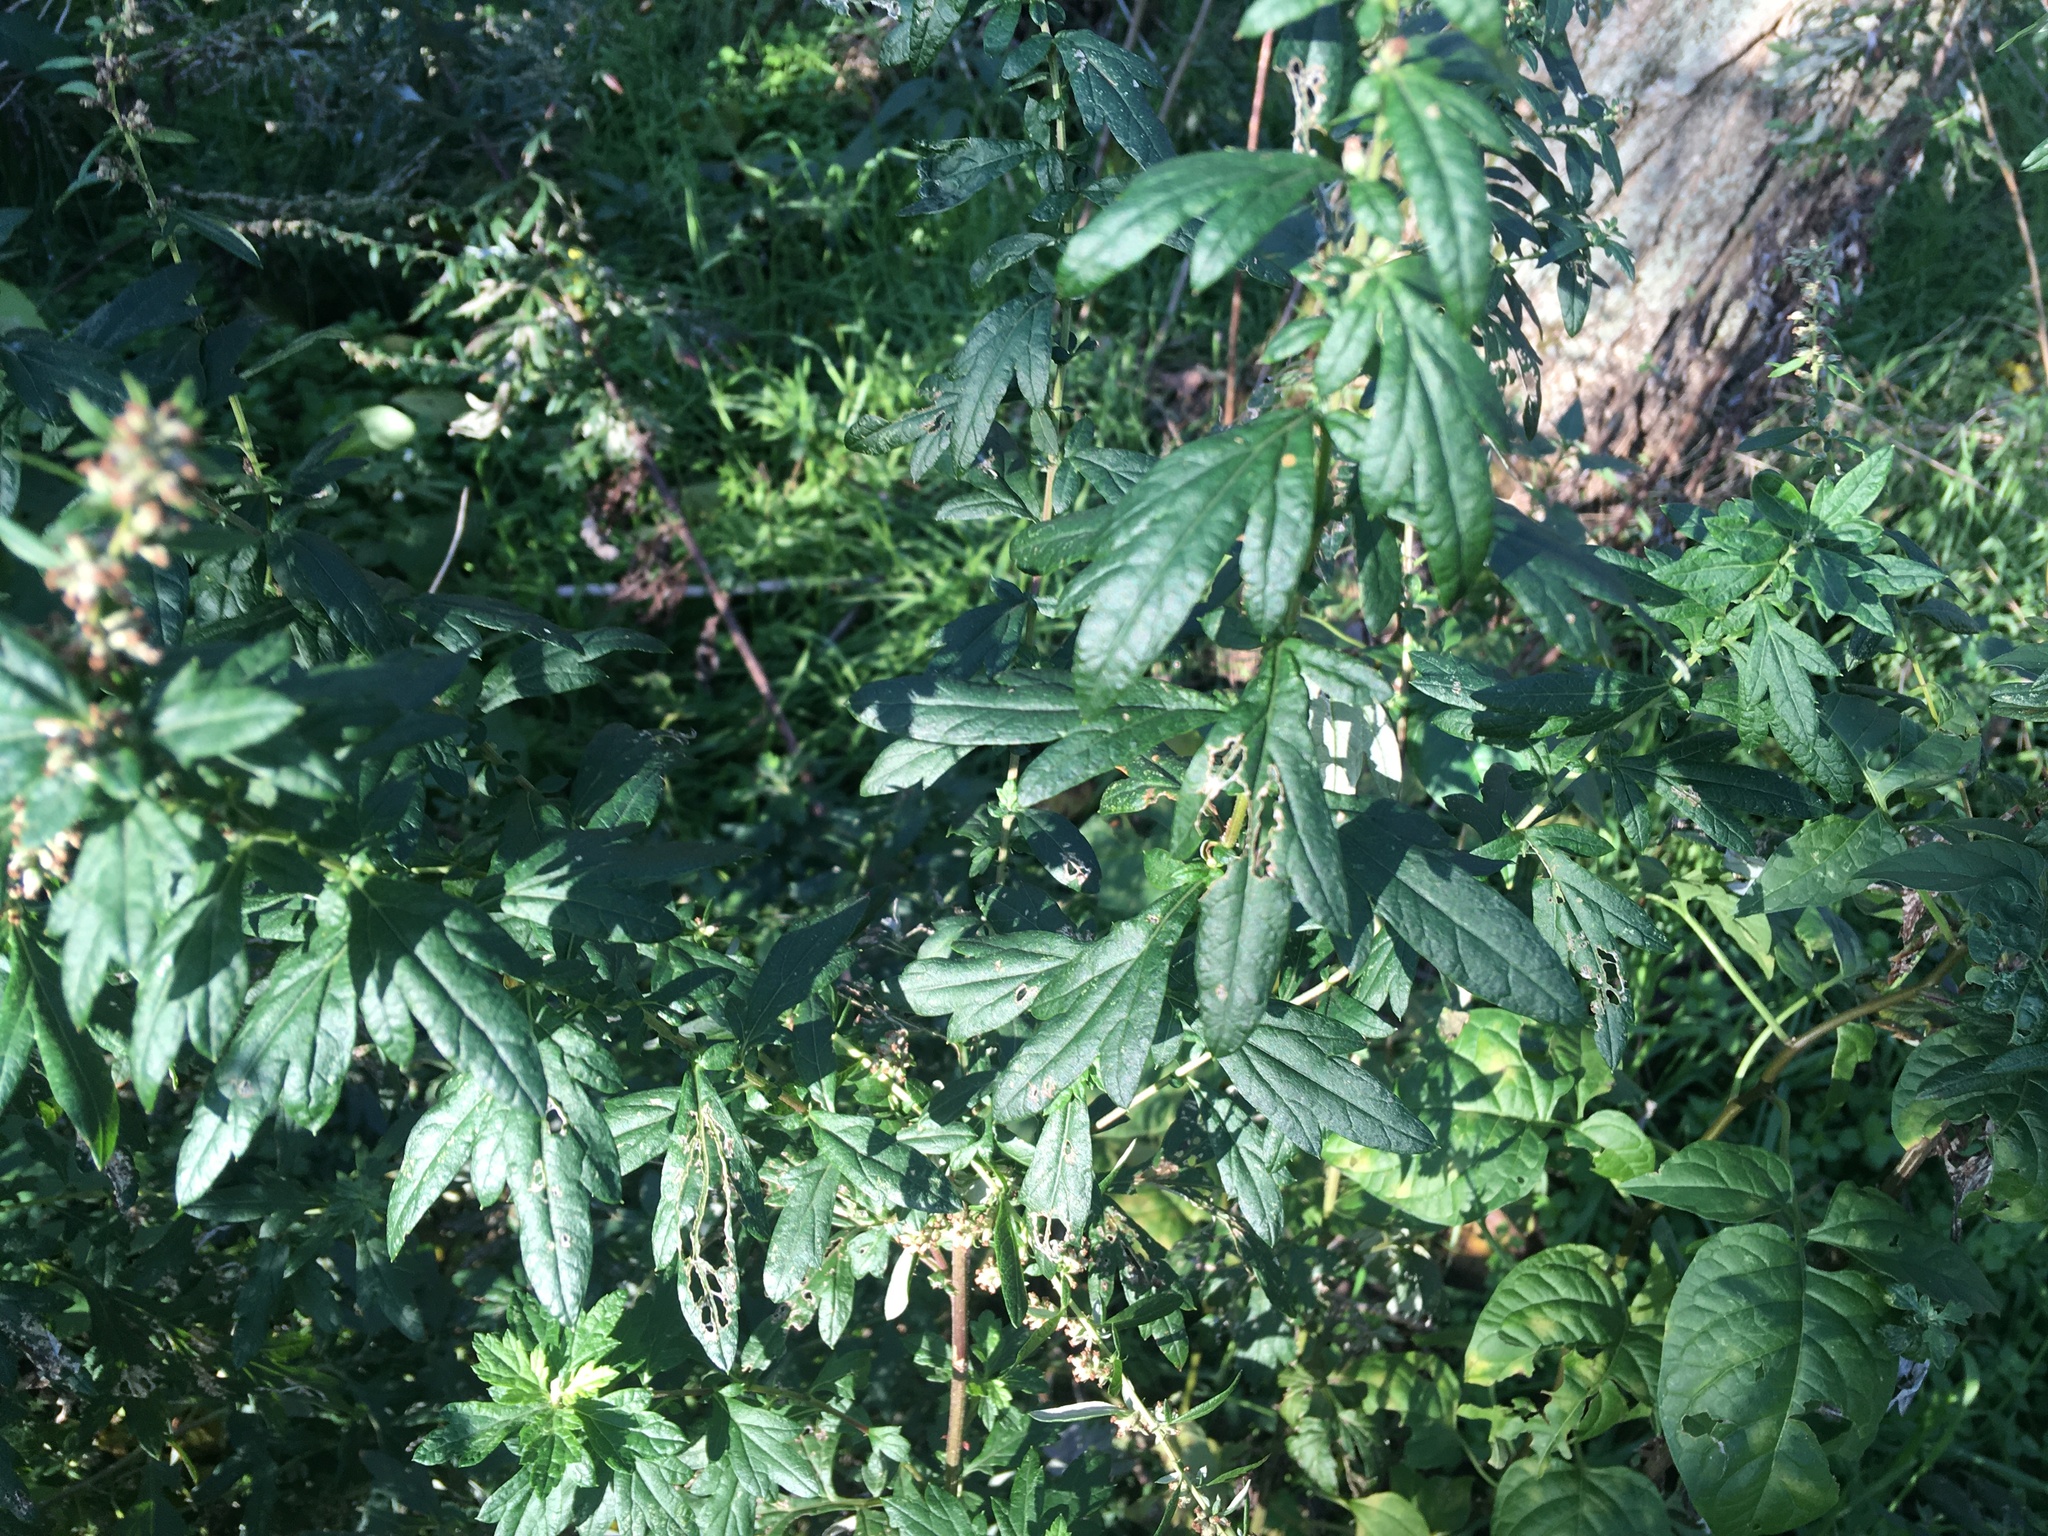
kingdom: Plantae
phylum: Tracheophyta
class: Magnoliopsida
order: Asterales
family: Asteraceae
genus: Artemisia
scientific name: Artemisia vulgaris
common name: Mugwort
